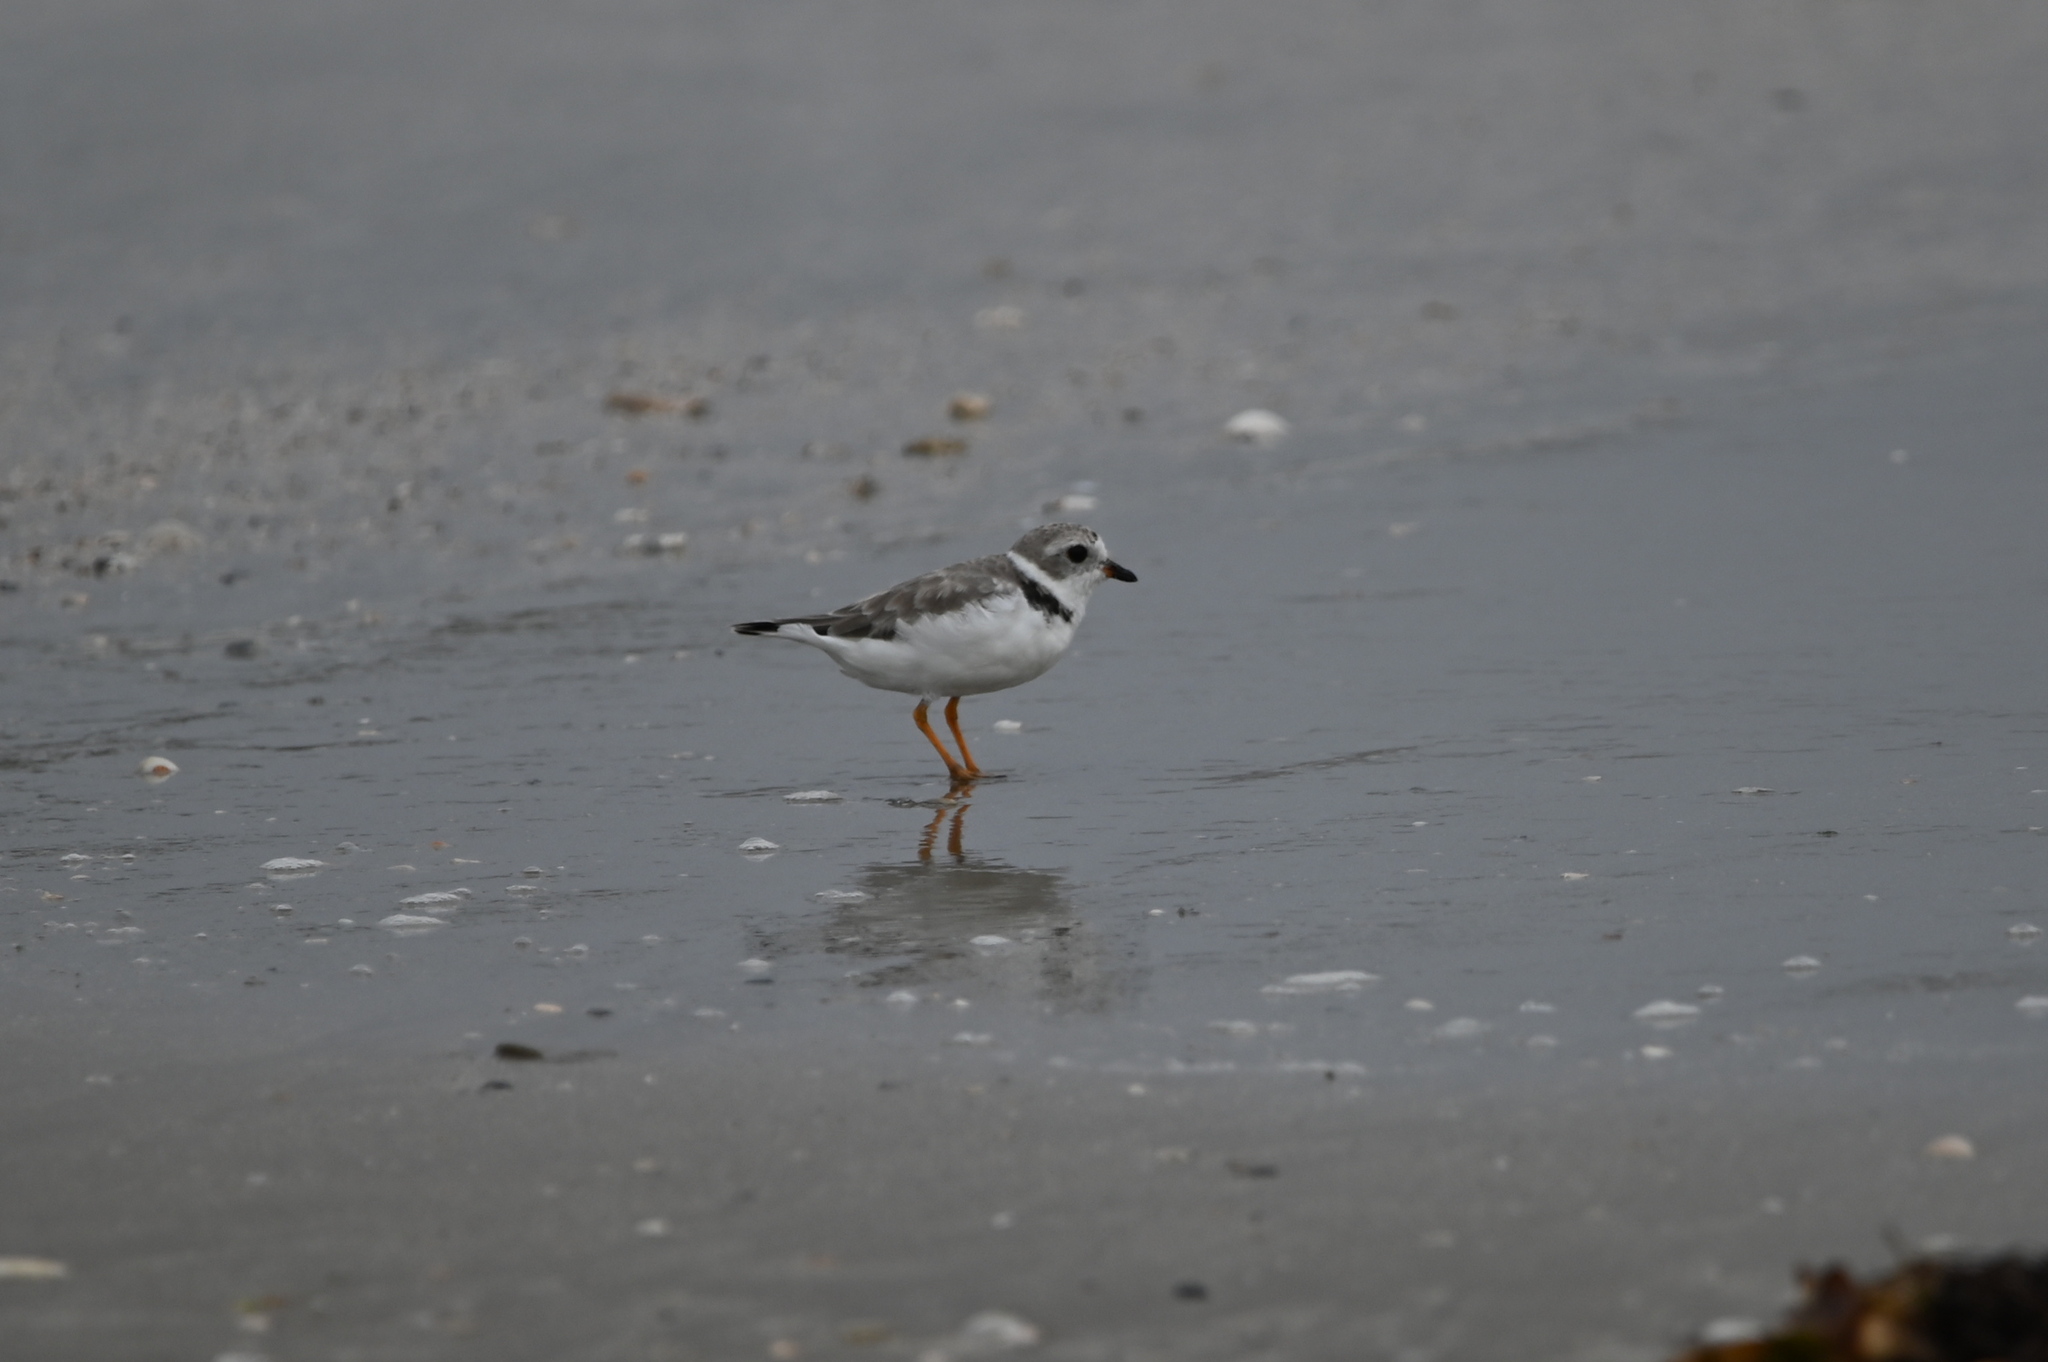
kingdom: Animalia
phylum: Chordata
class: Aves
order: Charadriiformes
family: Charadriidae
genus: Charadrius
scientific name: Charadrius melodus
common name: Piping plover
